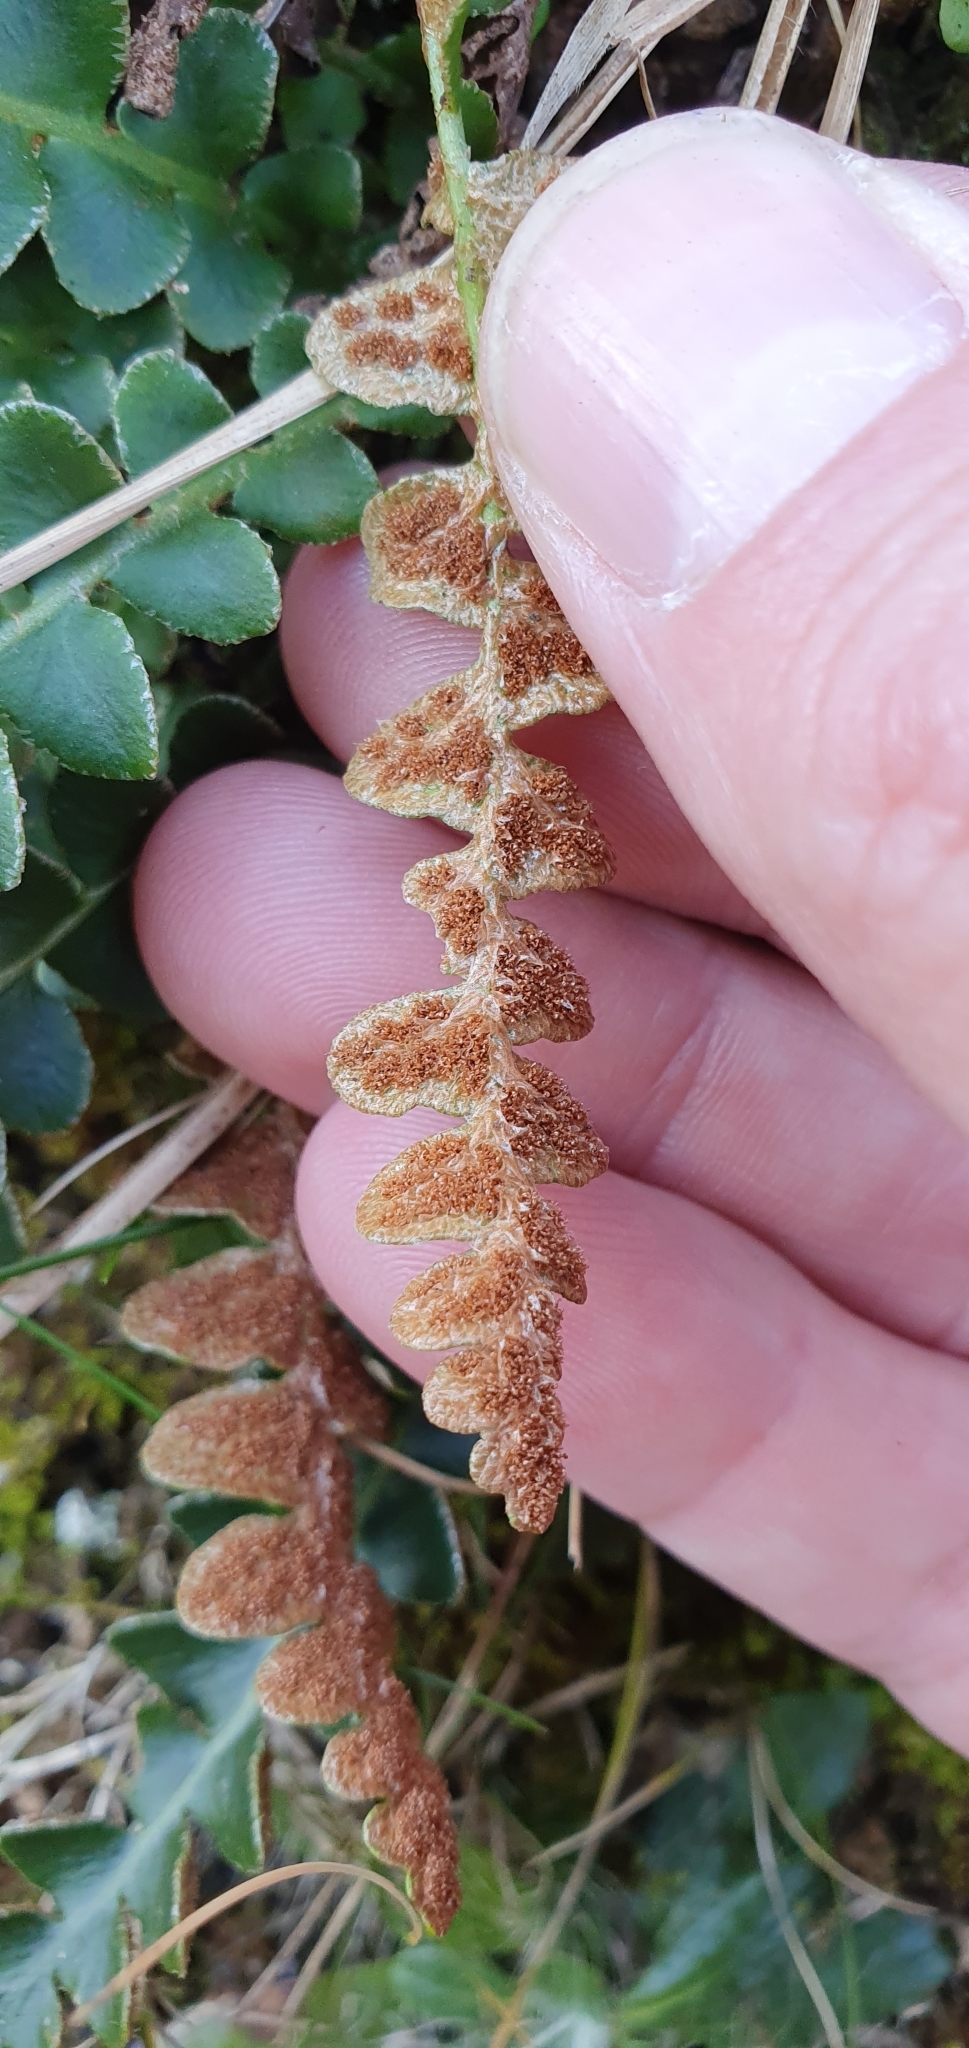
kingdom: Plantae
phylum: Tracheophyta
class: Polypodiopsida
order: Polypodiales
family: Aspleniaceae
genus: Asplenium
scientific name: Asplenium ceterach
